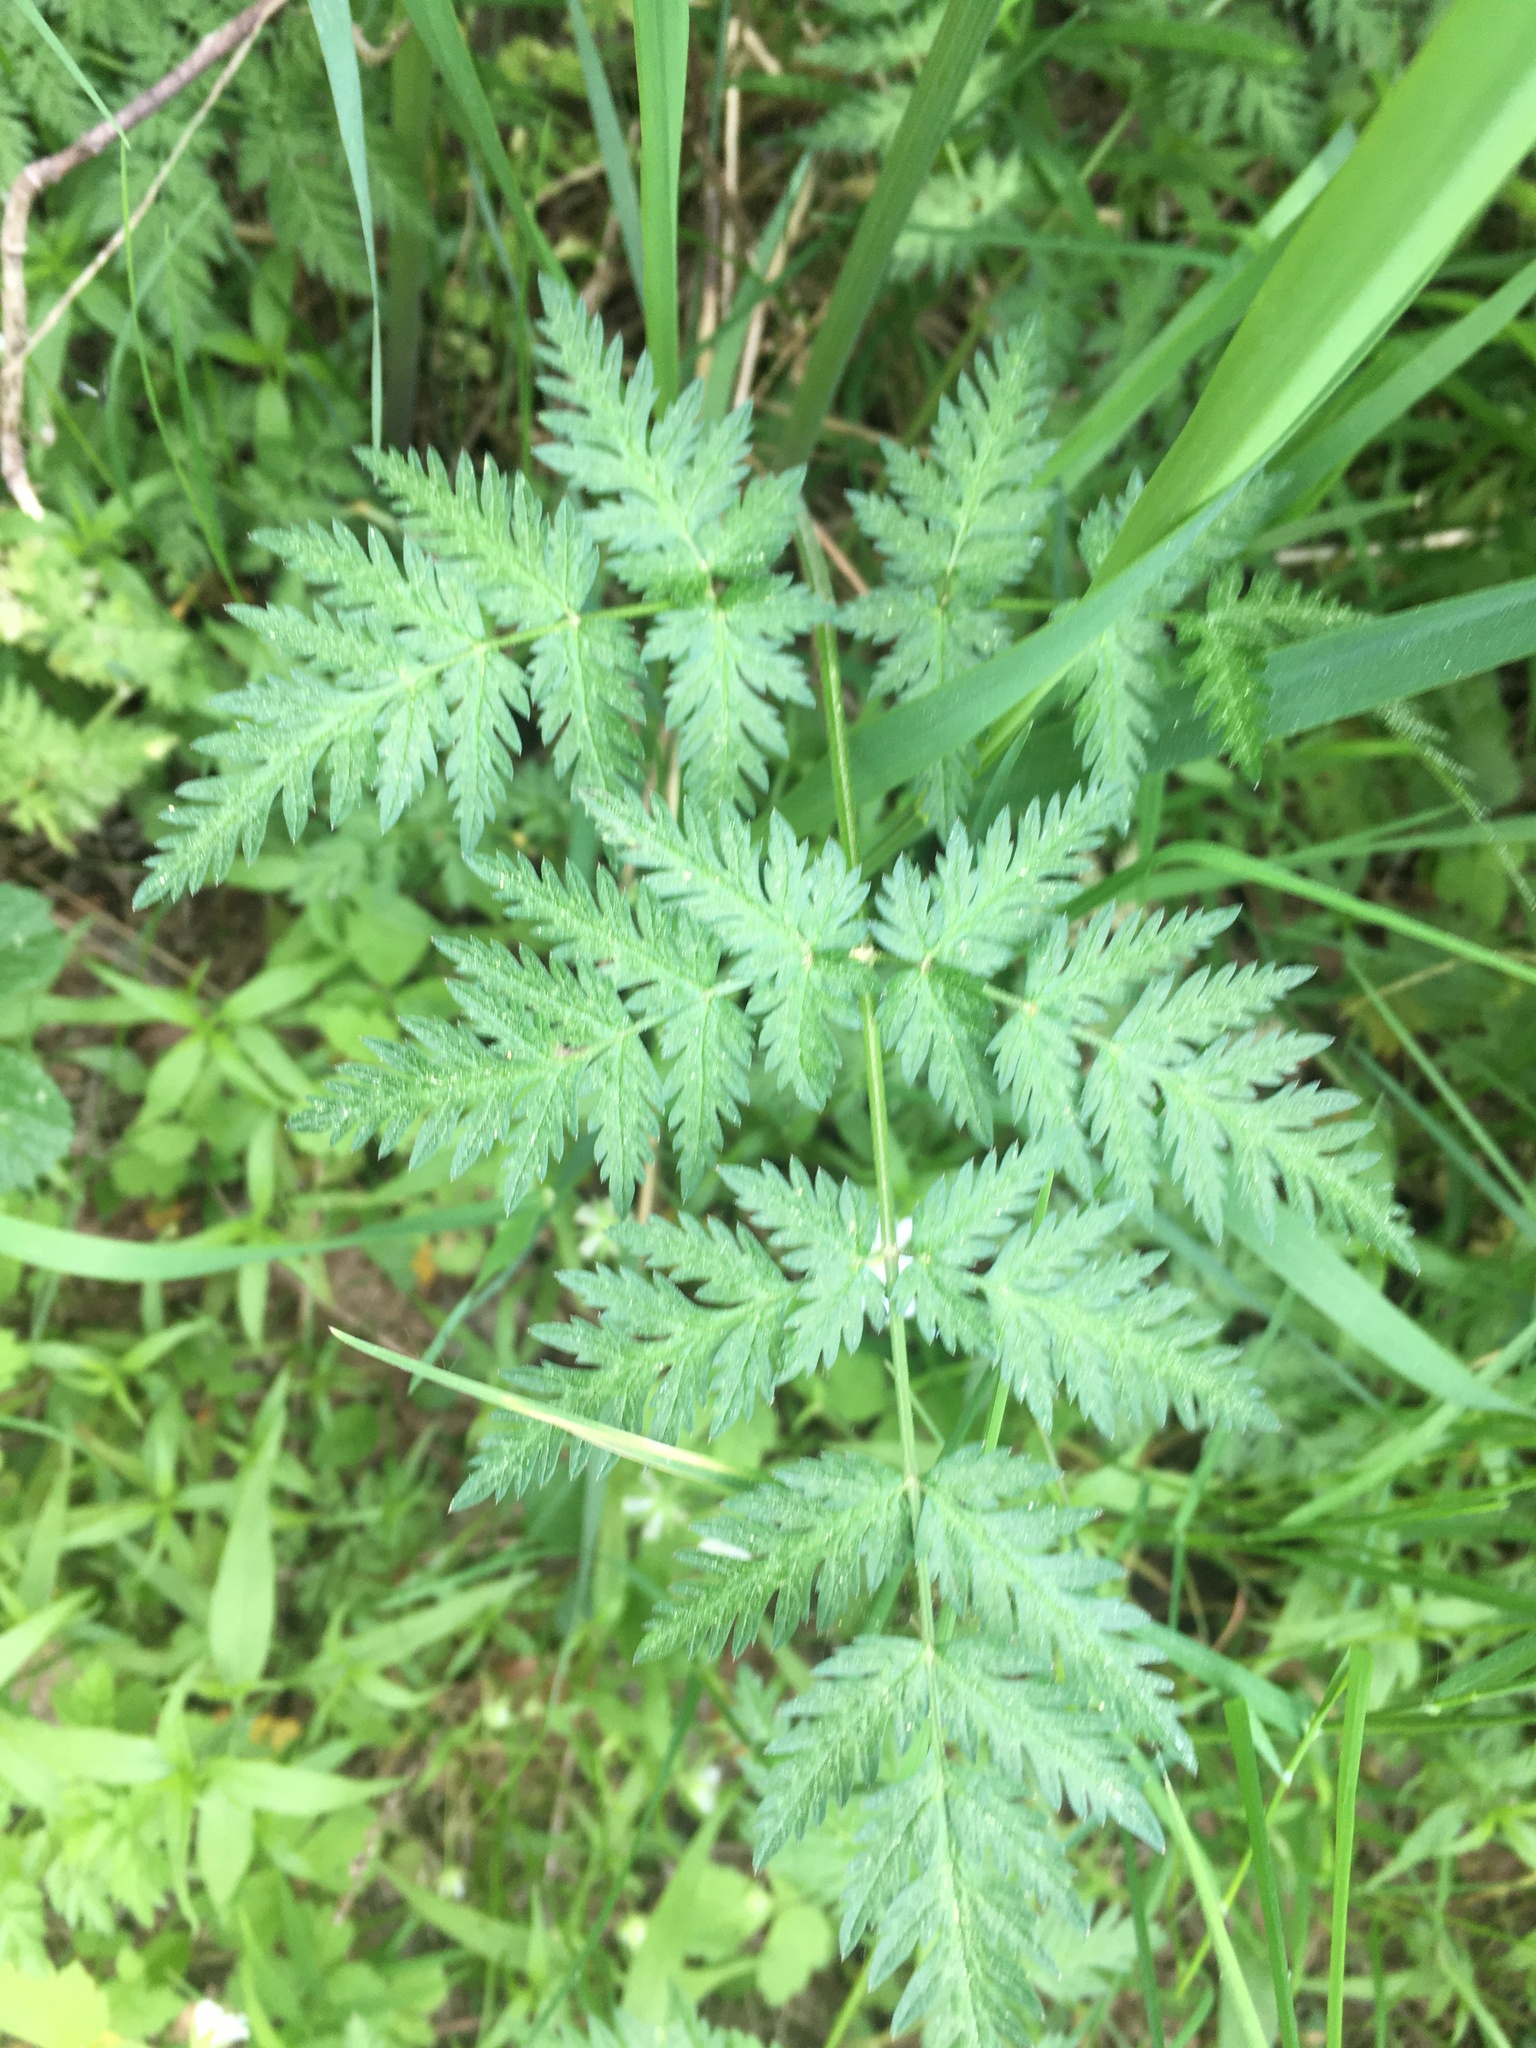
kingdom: Plantae
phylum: Tracheophyta
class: Magnoliopsida
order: Apiales
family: Apiaceae
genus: Anthriscus
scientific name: Anthriscus sylvestris
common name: Cow parsley
